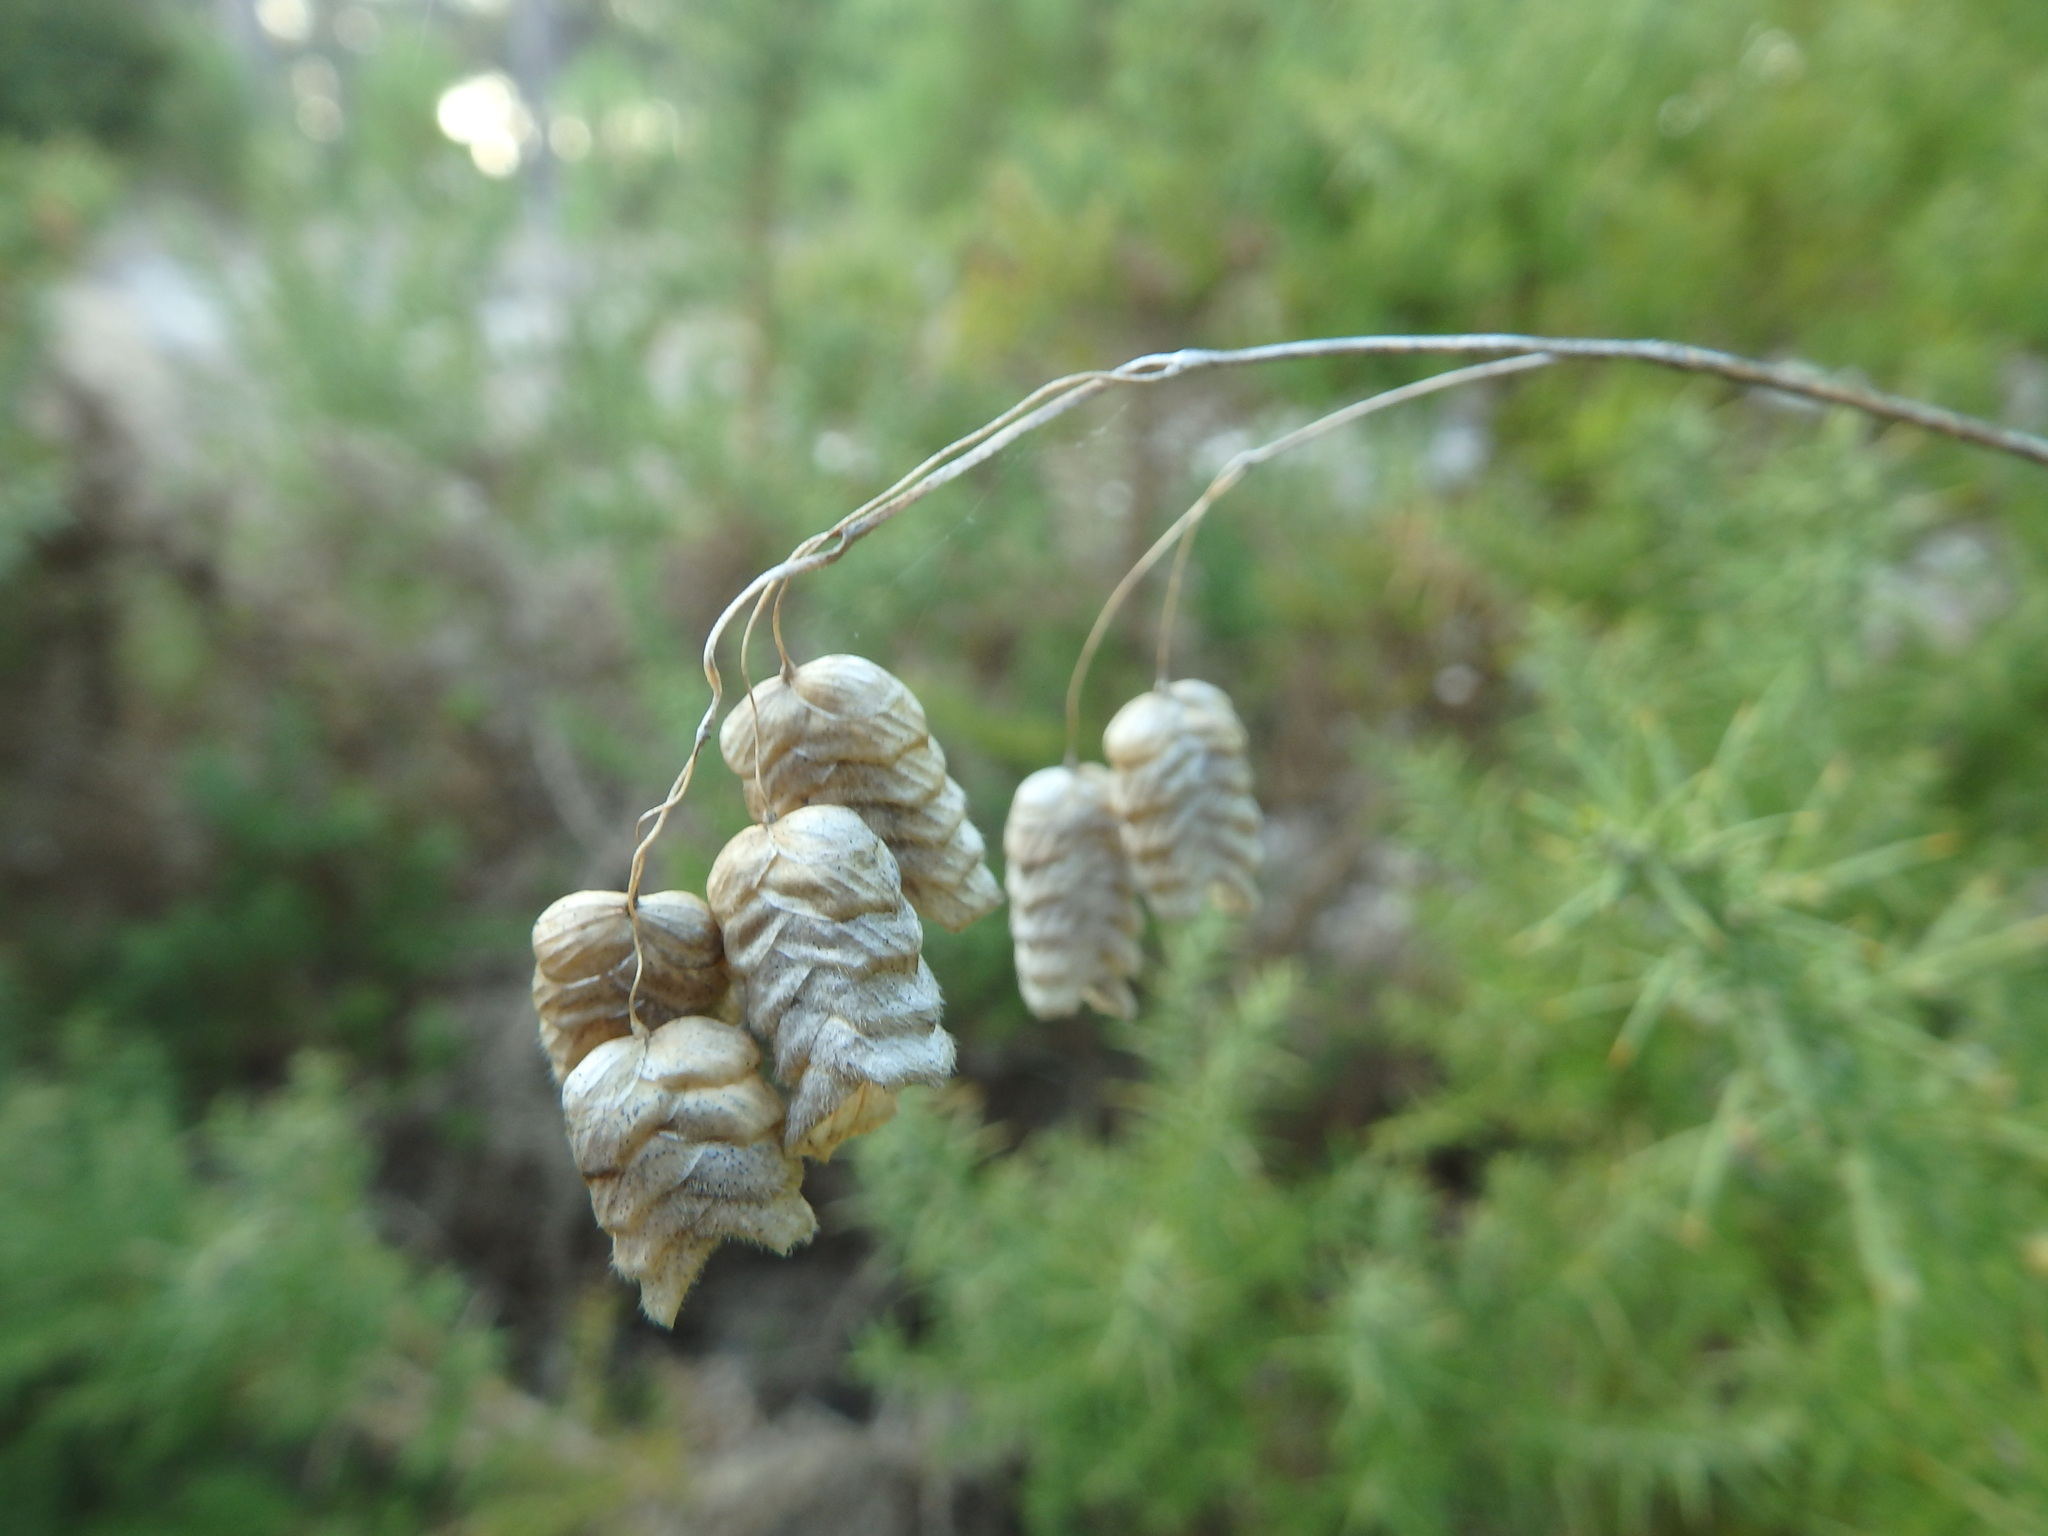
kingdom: Plantae
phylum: Tracheophyta
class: Liliopsida
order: Poales
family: Poaceae
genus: Briza
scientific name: Briza maxima
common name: Big quakinggrass
